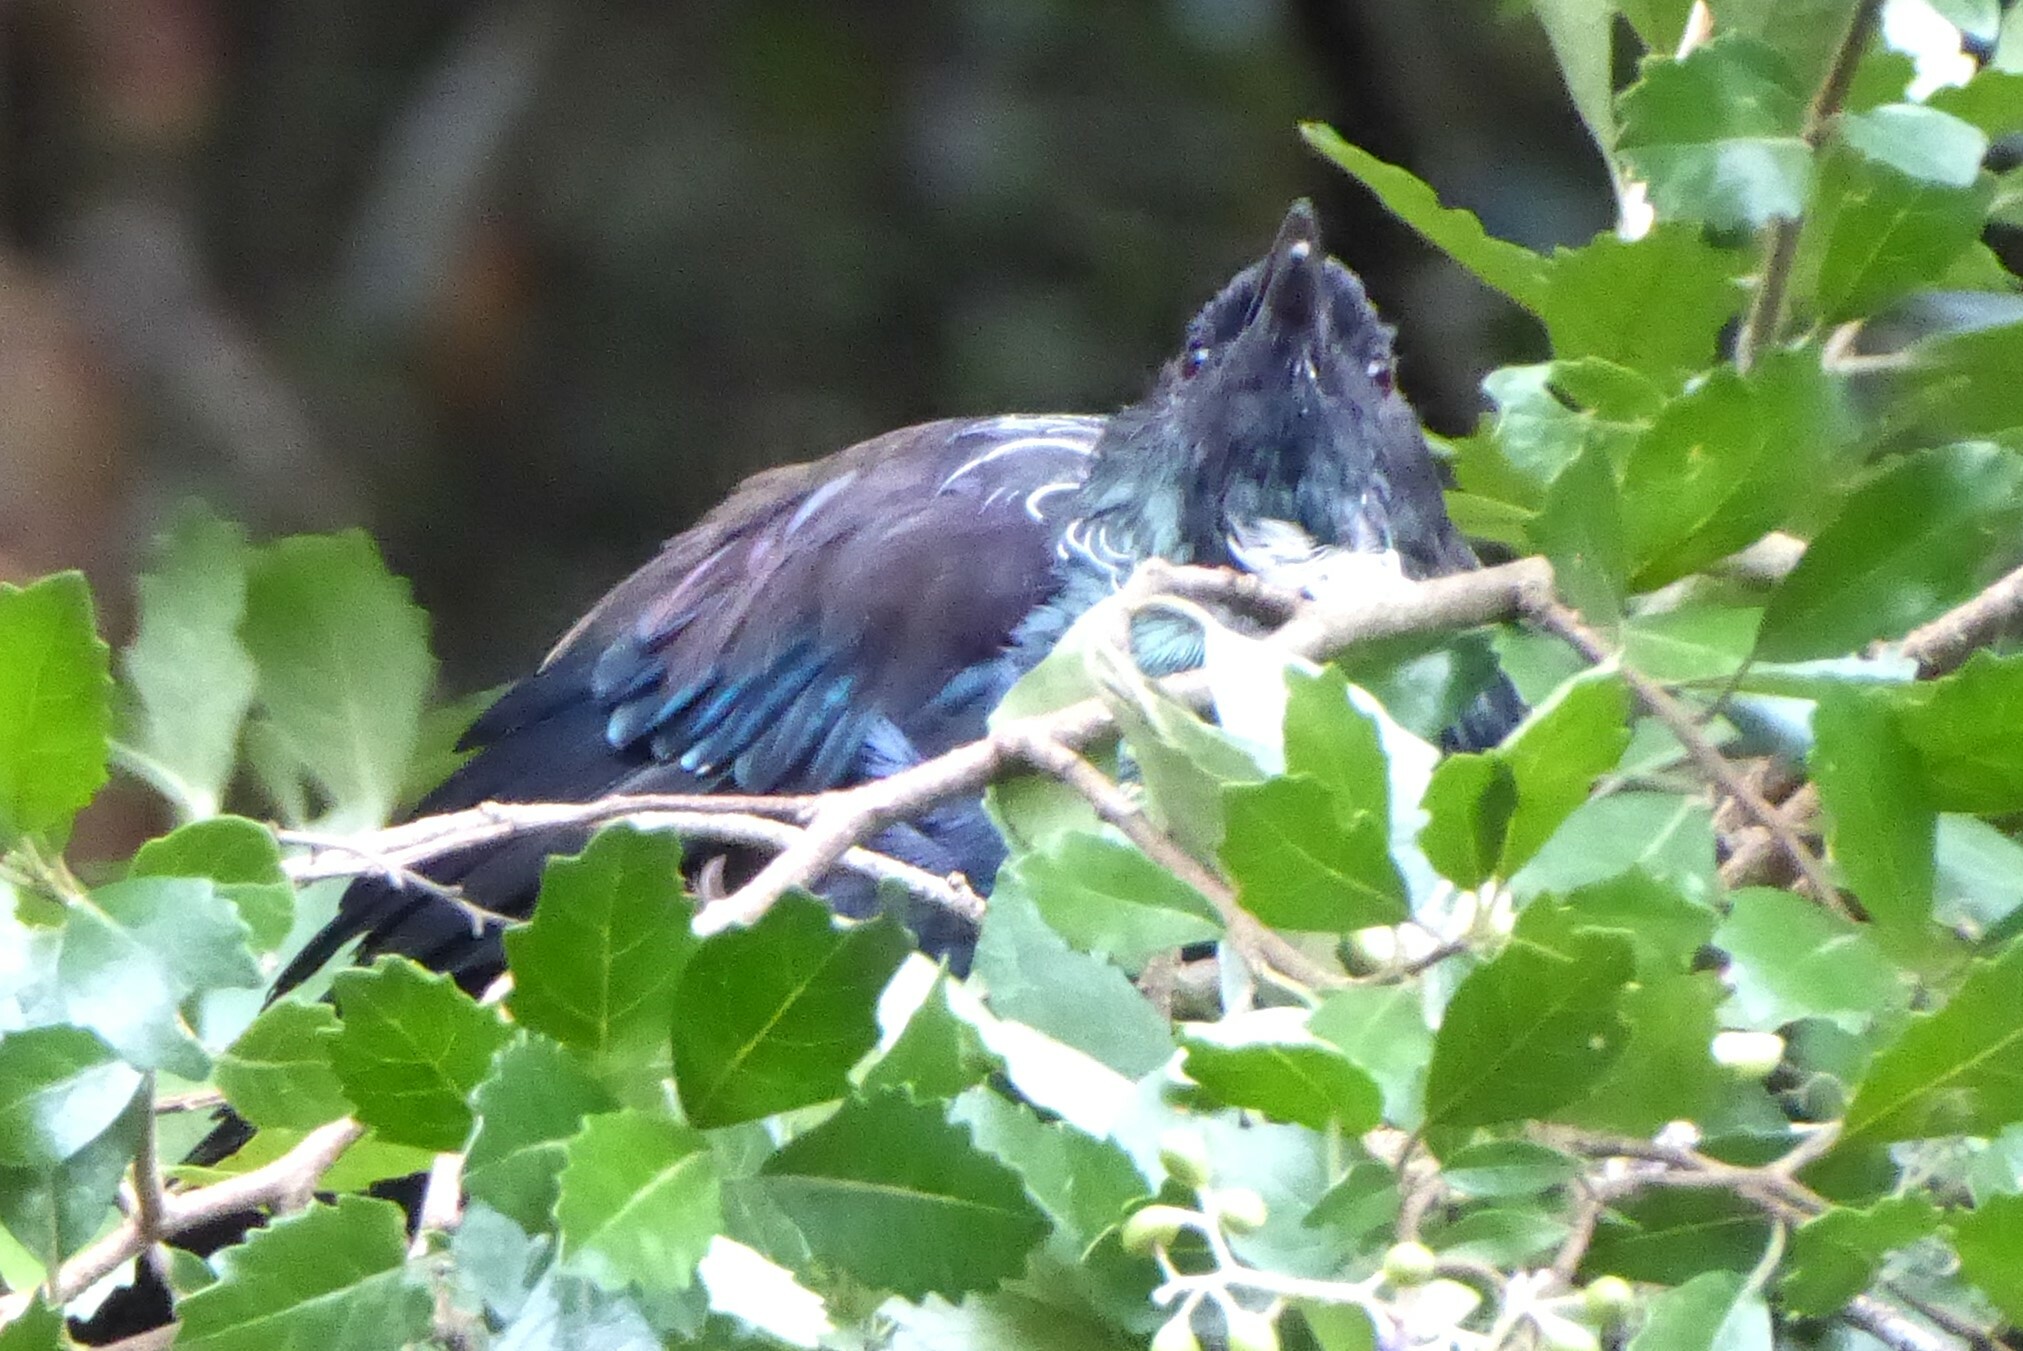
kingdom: Animalia
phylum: Chordata
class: Aves
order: Passeriformes
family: Meliphagidae
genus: Prosthemadera
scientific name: Prosthemadera novaeseelandiae
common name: Tui
